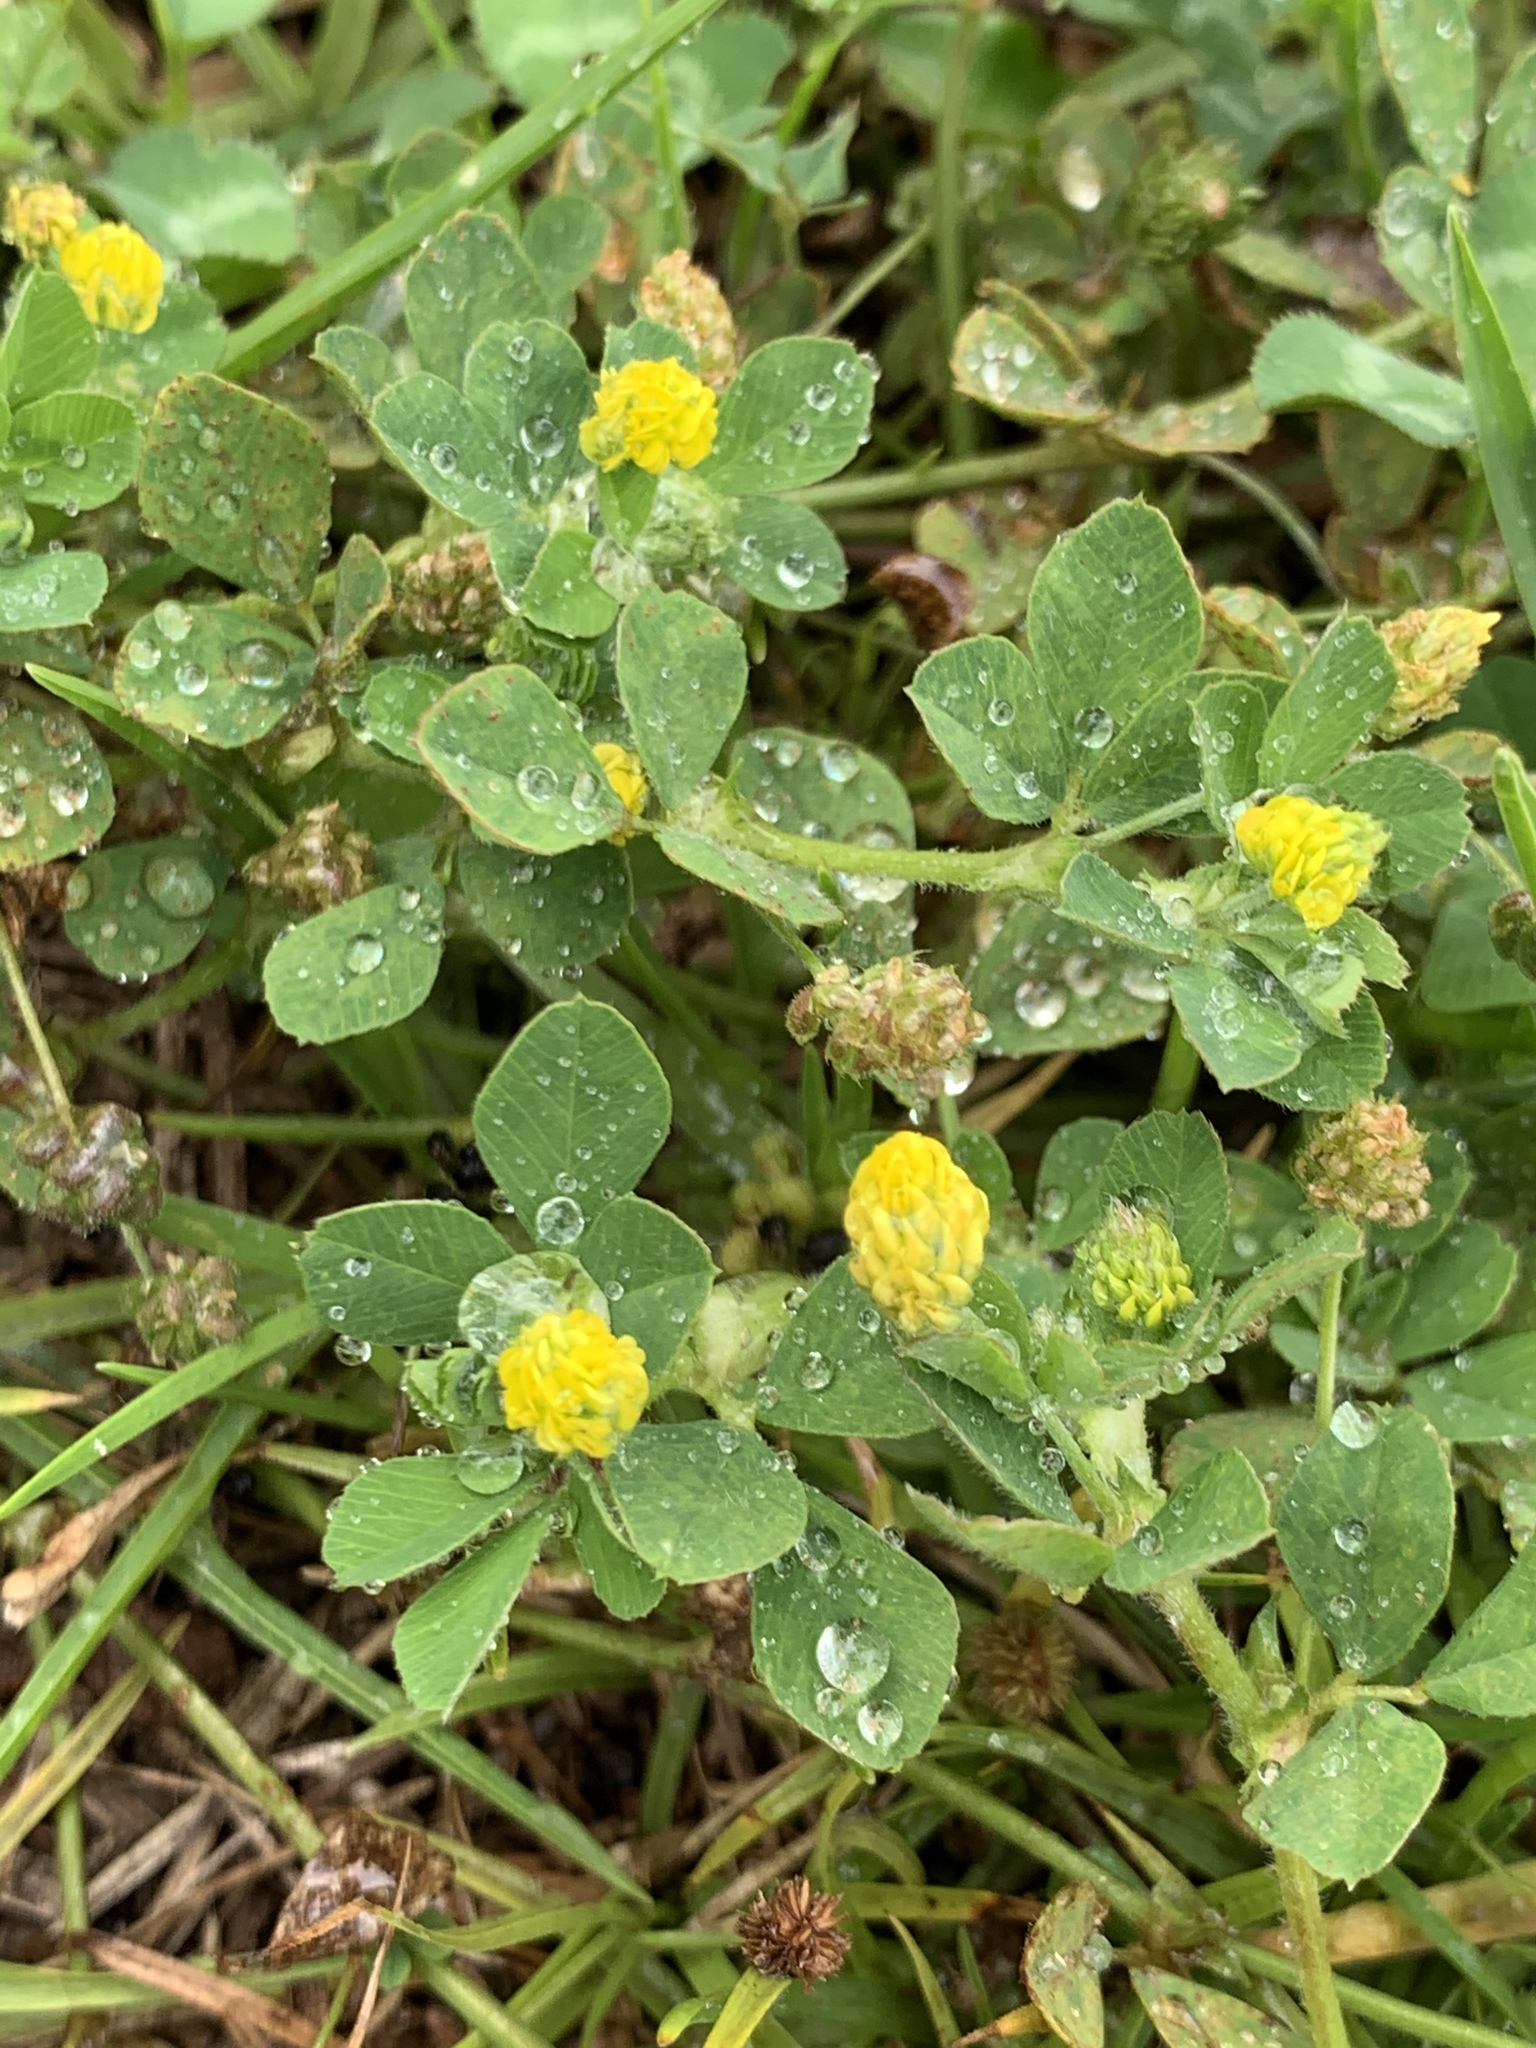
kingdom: Plantae
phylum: Tracheophyta
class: Magnoliopsida
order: Fabales
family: Fabaceae
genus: Medicago
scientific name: Medicago lupulina
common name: Black medick
